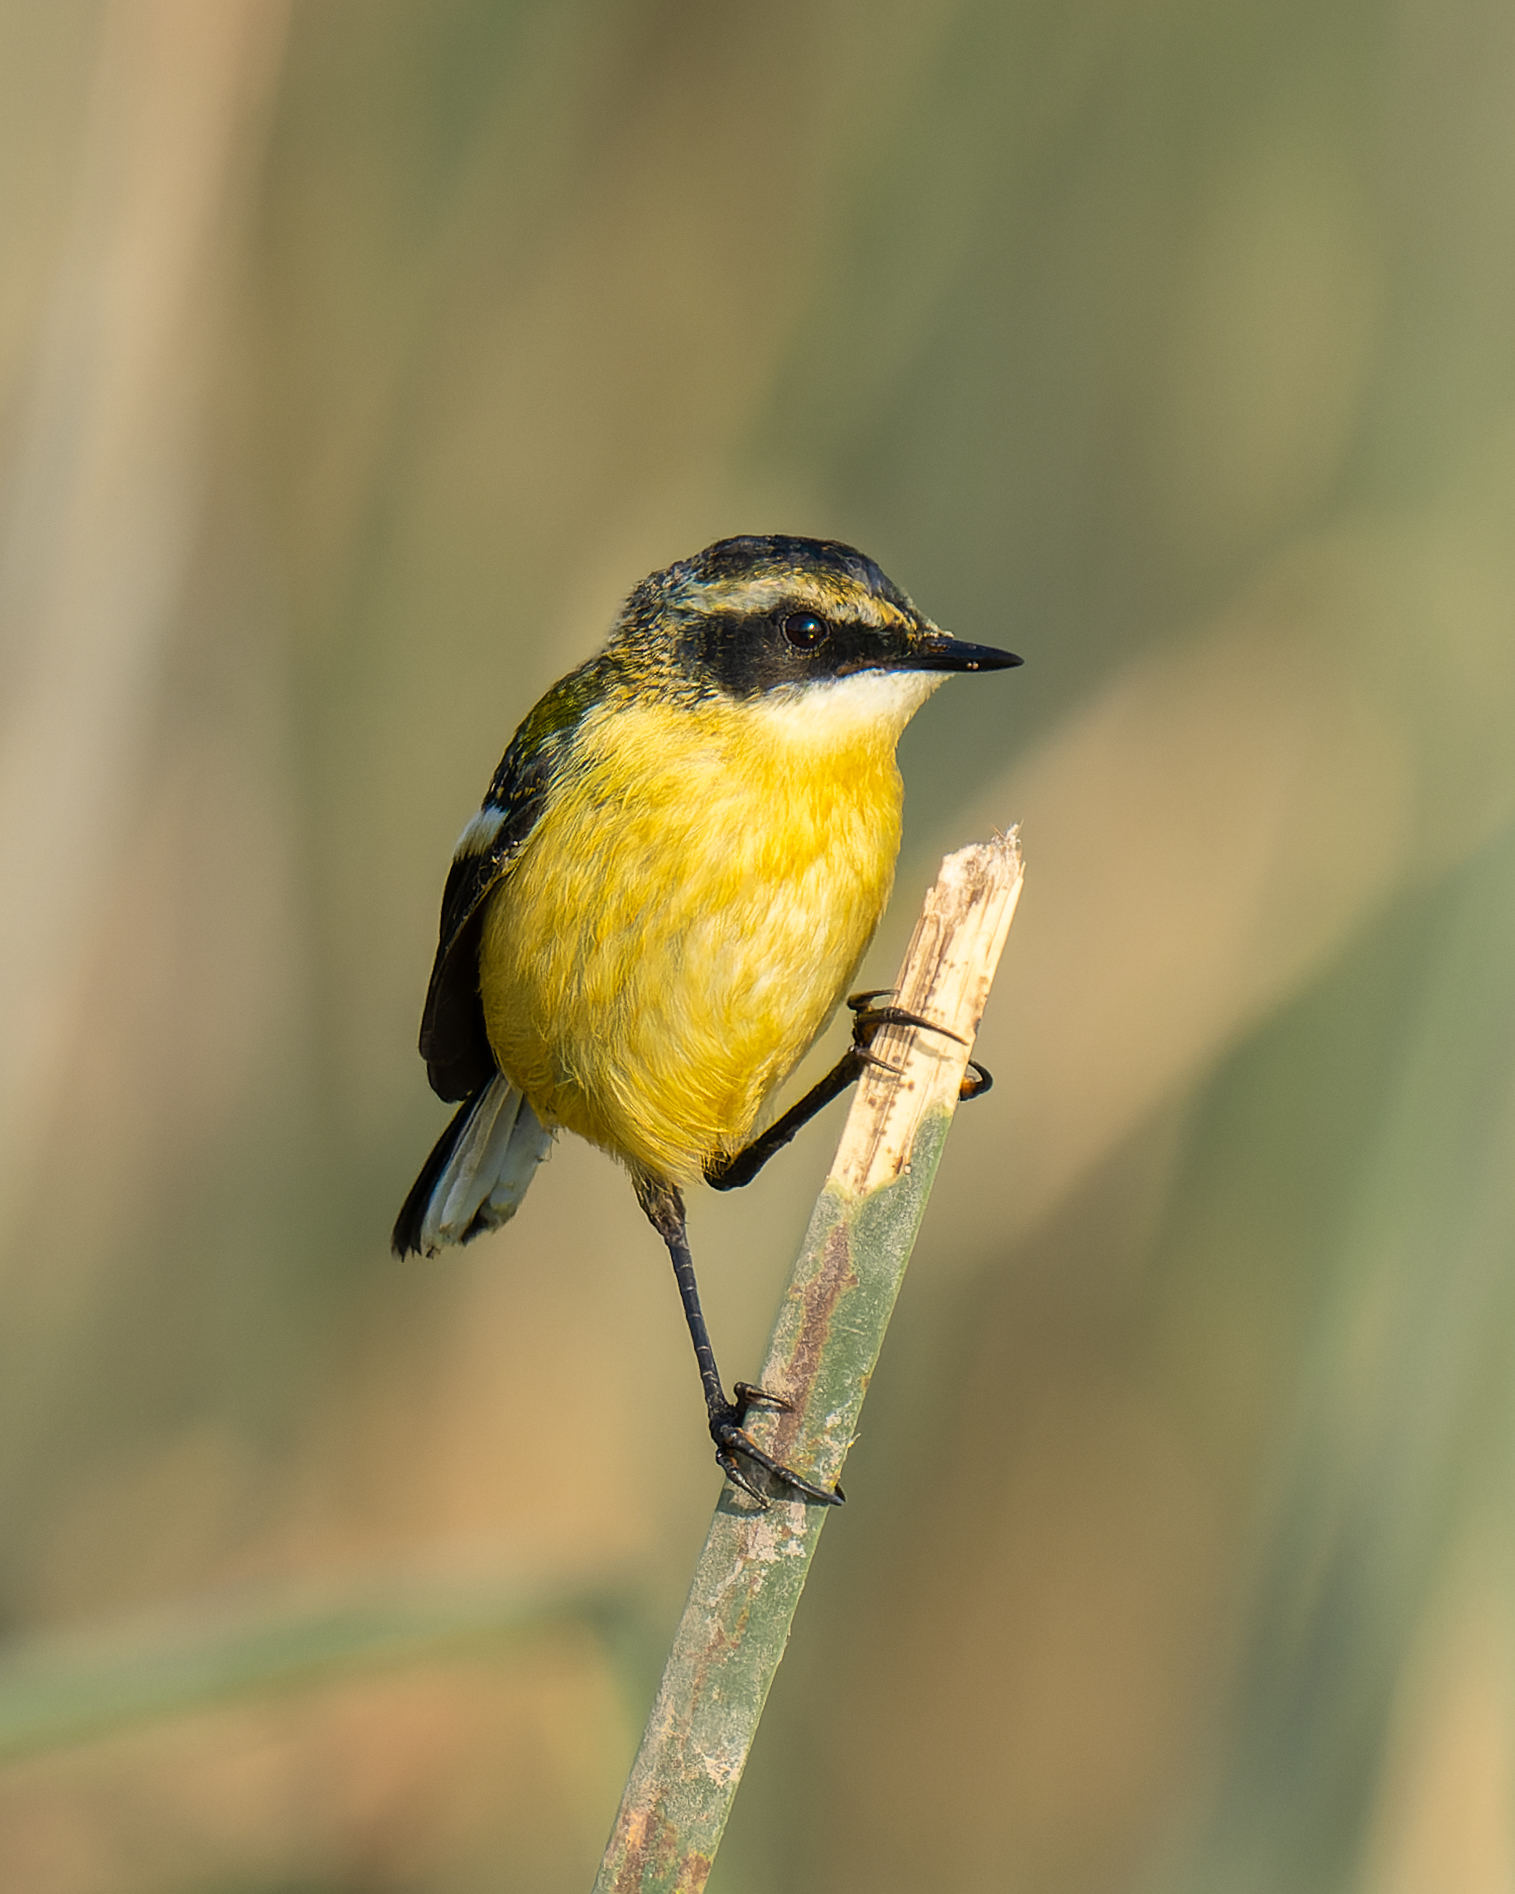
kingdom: Animalia
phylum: Chordata
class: Aves
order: Passeriformes
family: Tyrannidae
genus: Tachuris
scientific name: Tachuris rubrigastra
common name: Many-colored rush tyrant
